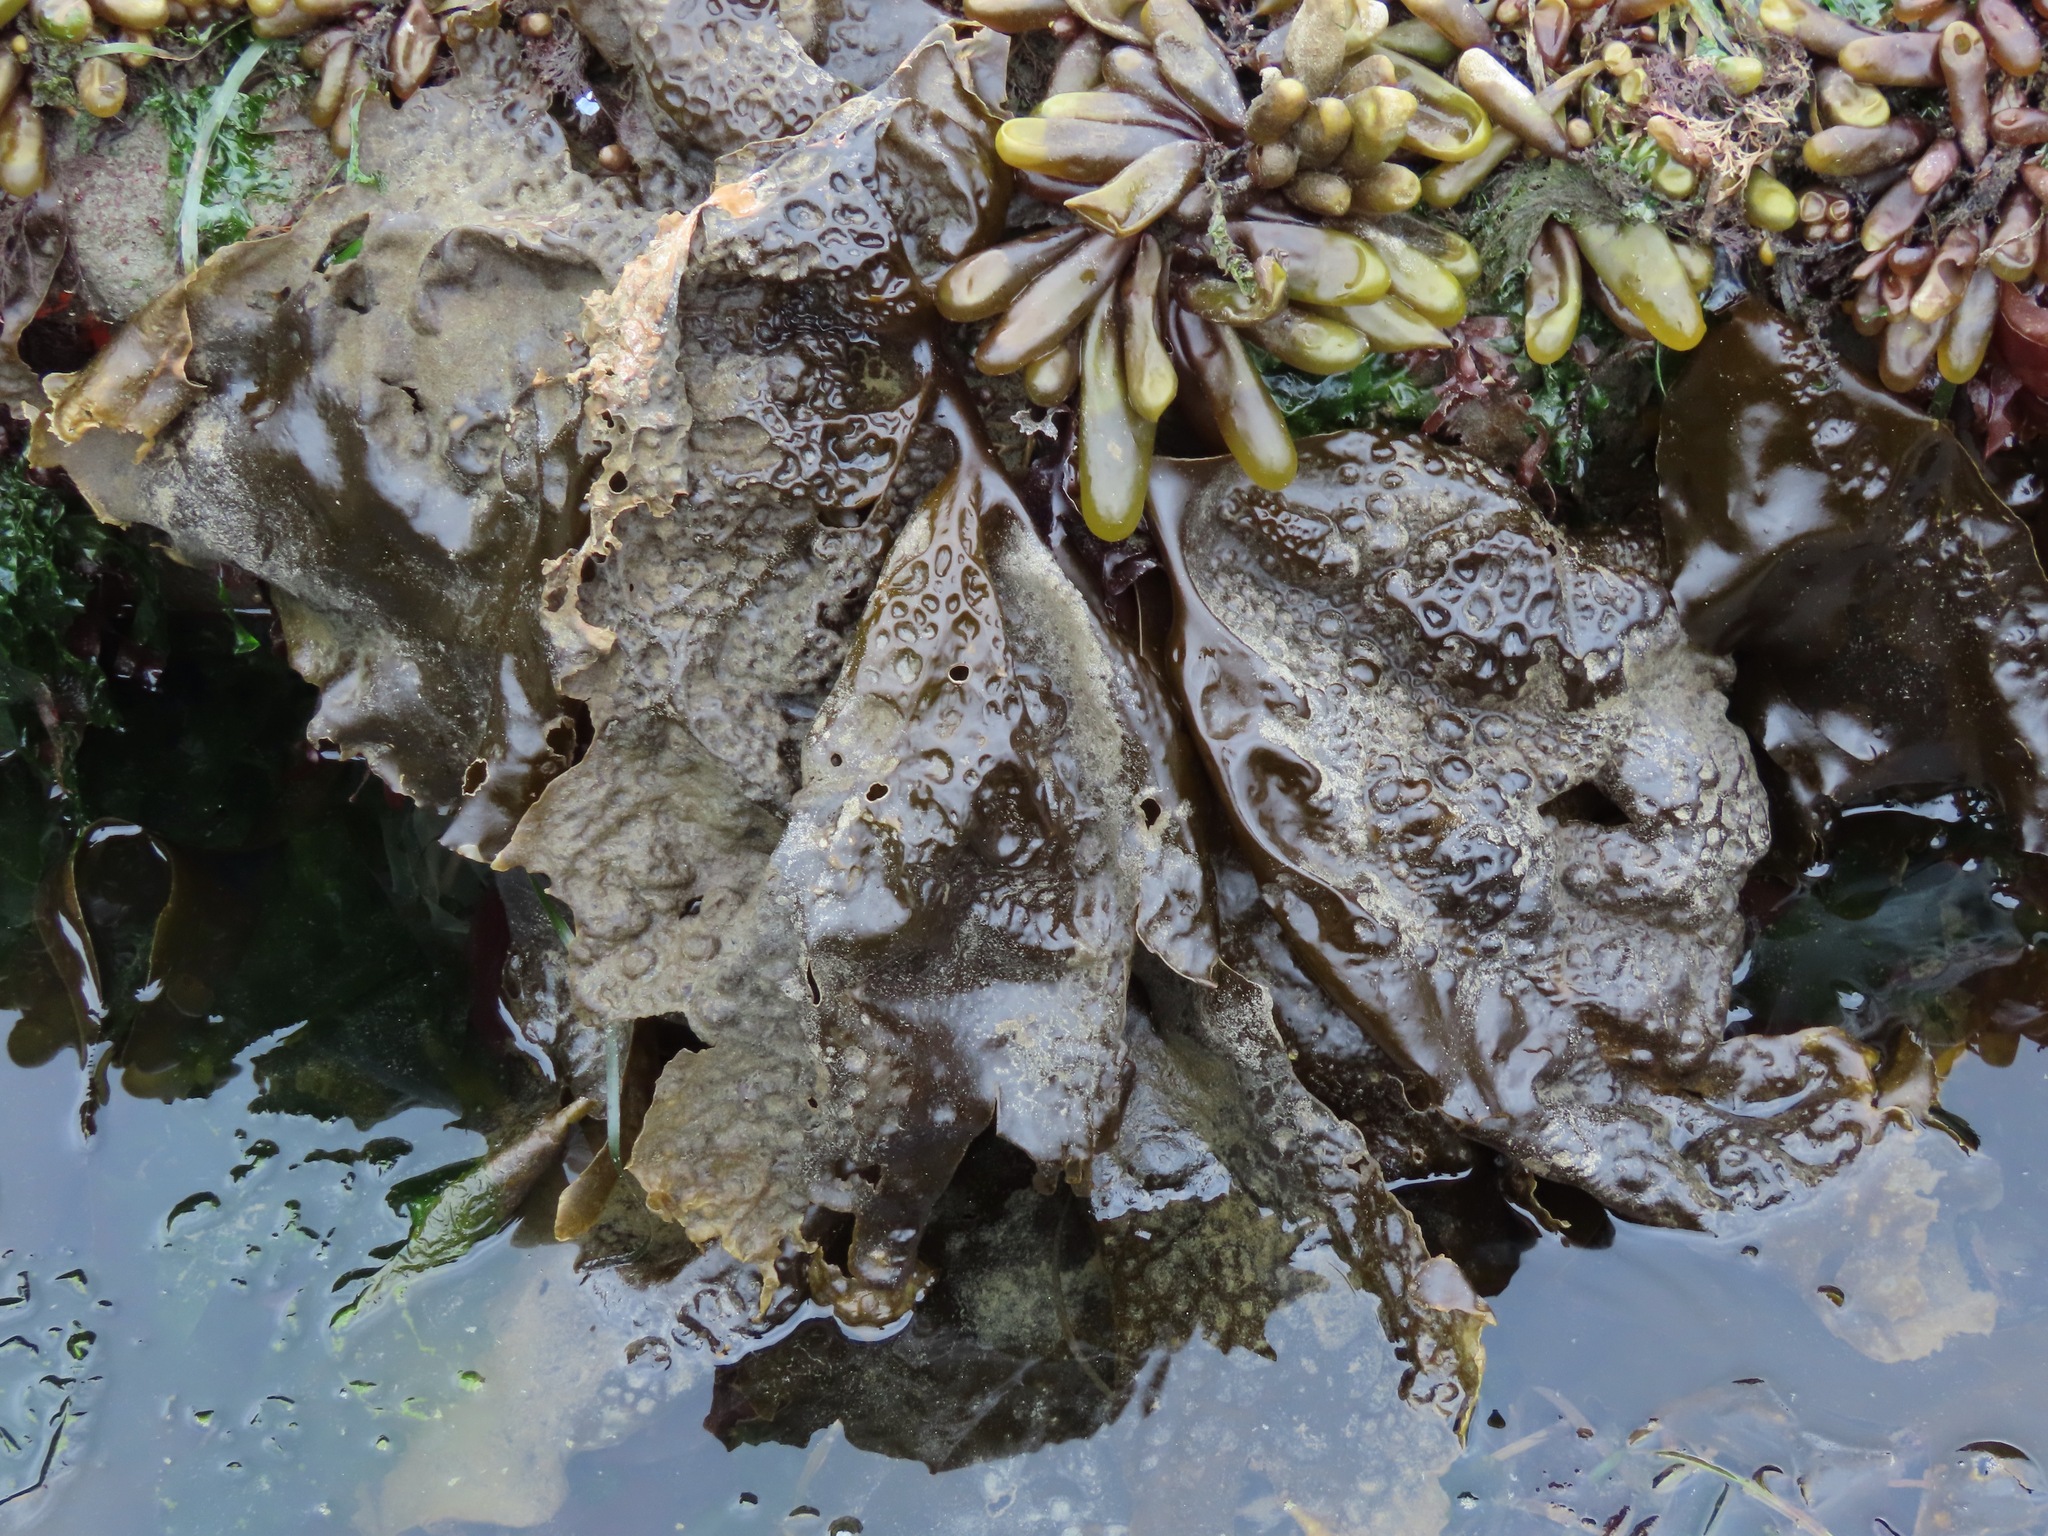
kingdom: Chromista
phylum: Ochrophyta
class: Phaeophyceae
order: Laminariales
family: Laminariaceae
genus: Hedophyllum
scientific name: Hedophyllum sessile
